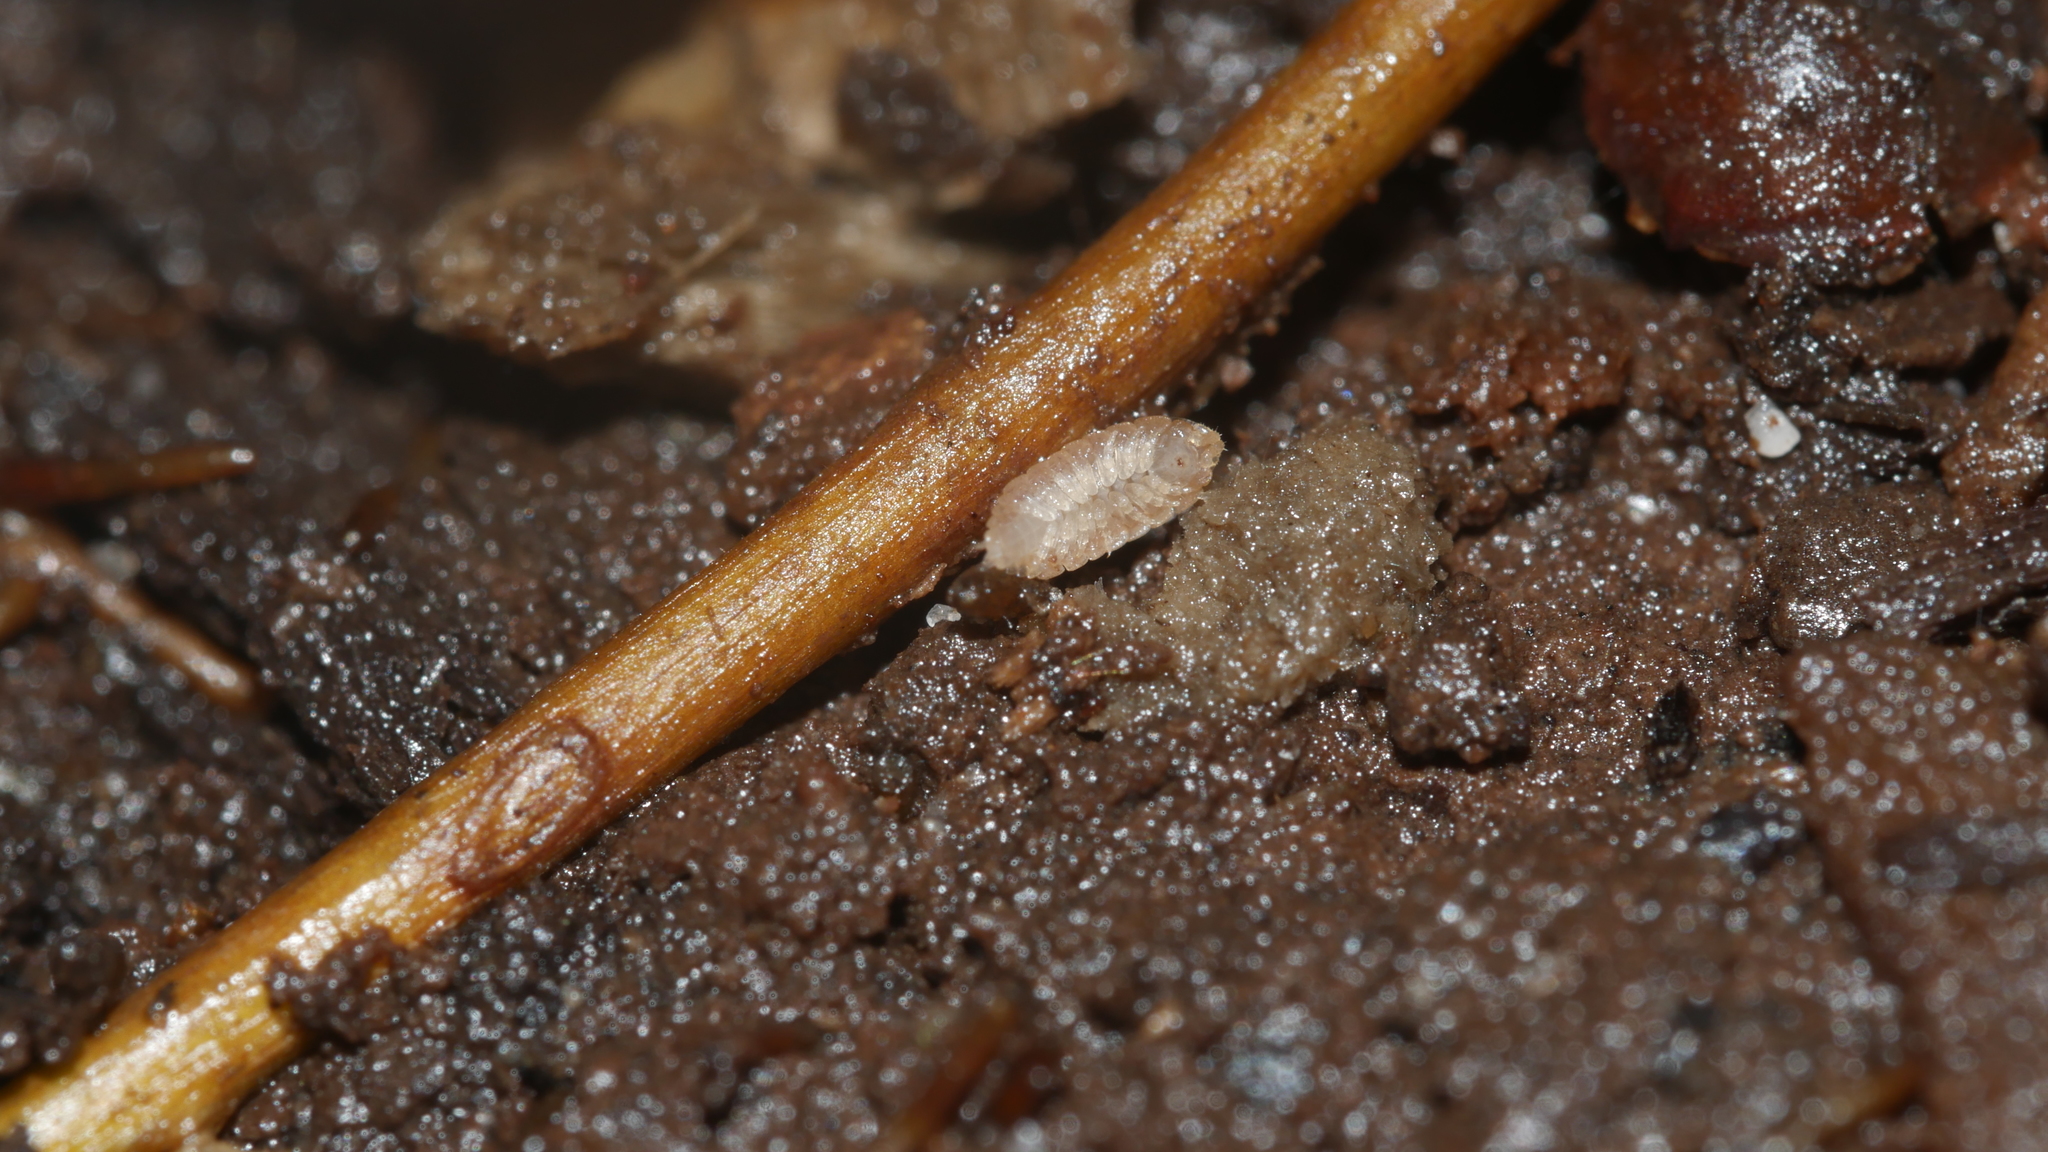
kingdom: Animalia
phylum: Arthropoda
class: Malacostraca
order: Isopoda
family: Trichoniscidae
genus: Haplophthalmus
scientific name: Haplophthalmus danicus
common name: Pillbug
